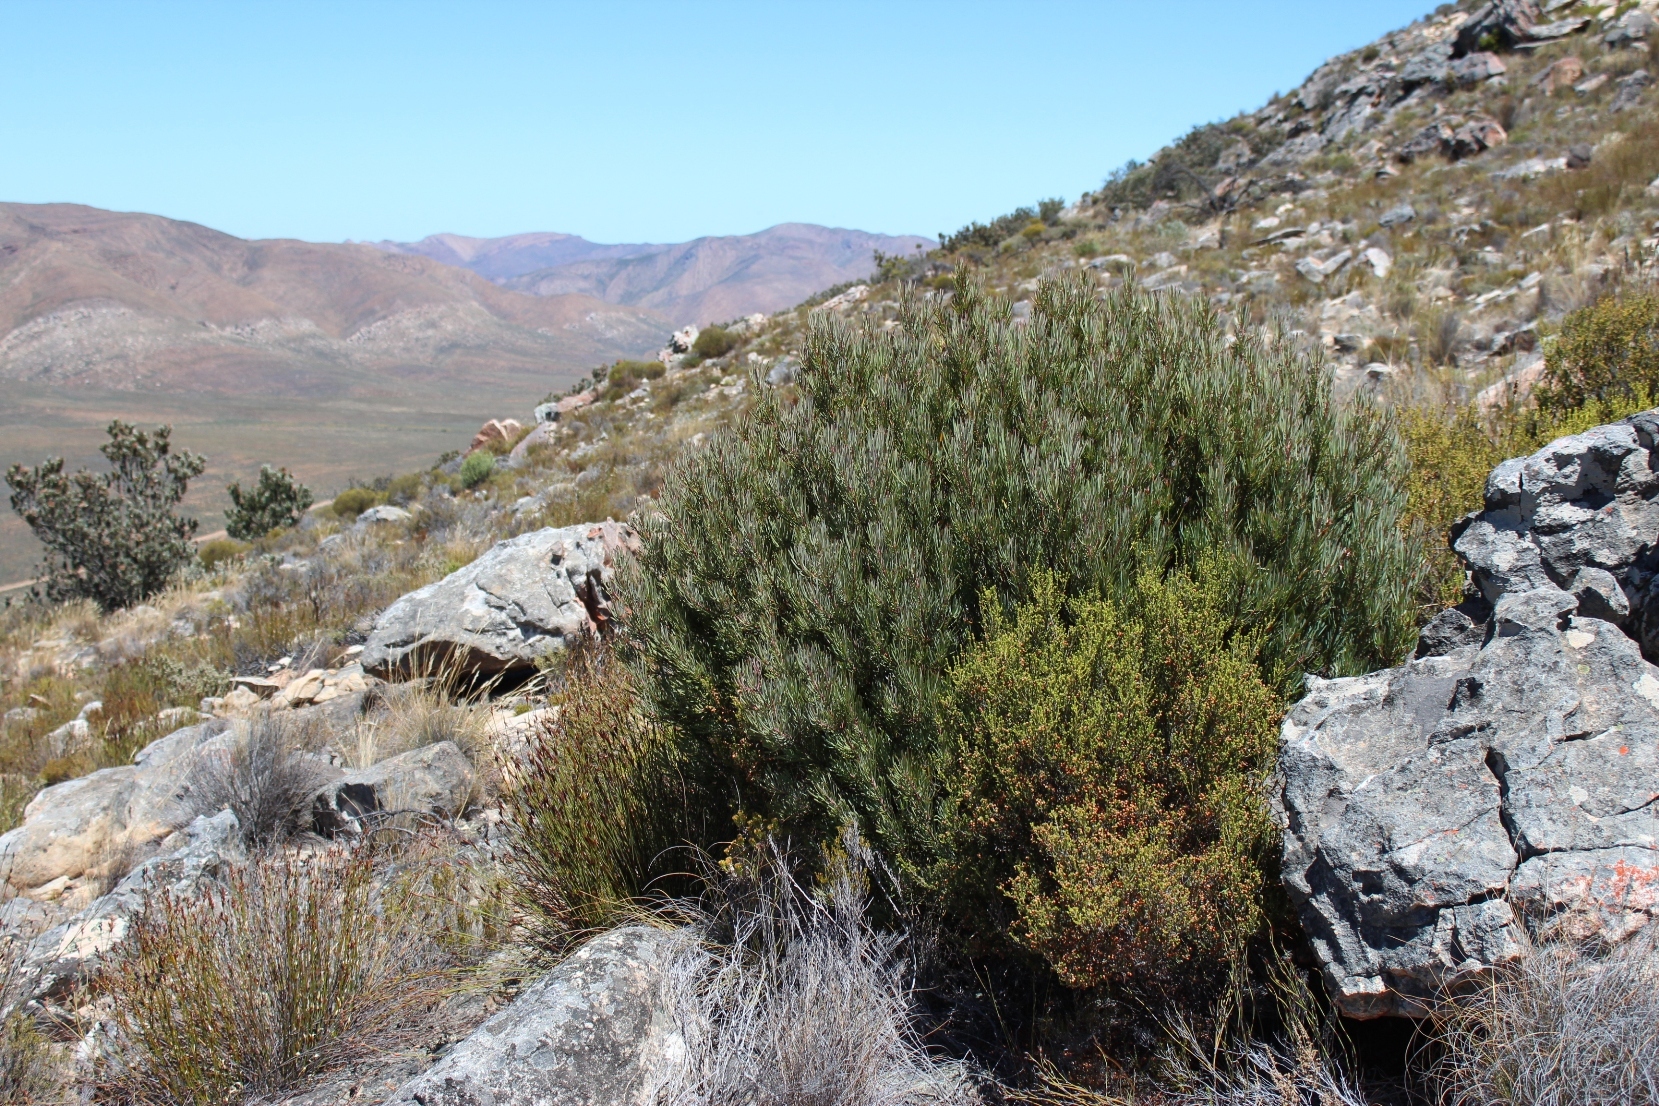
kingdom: Plantae
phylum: Tracheophyta
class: Magnoliopsida
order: Proteales
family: Proteaceae
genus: Protea
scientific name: Protea canaliculata
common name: Groove-leaf sugarbush
